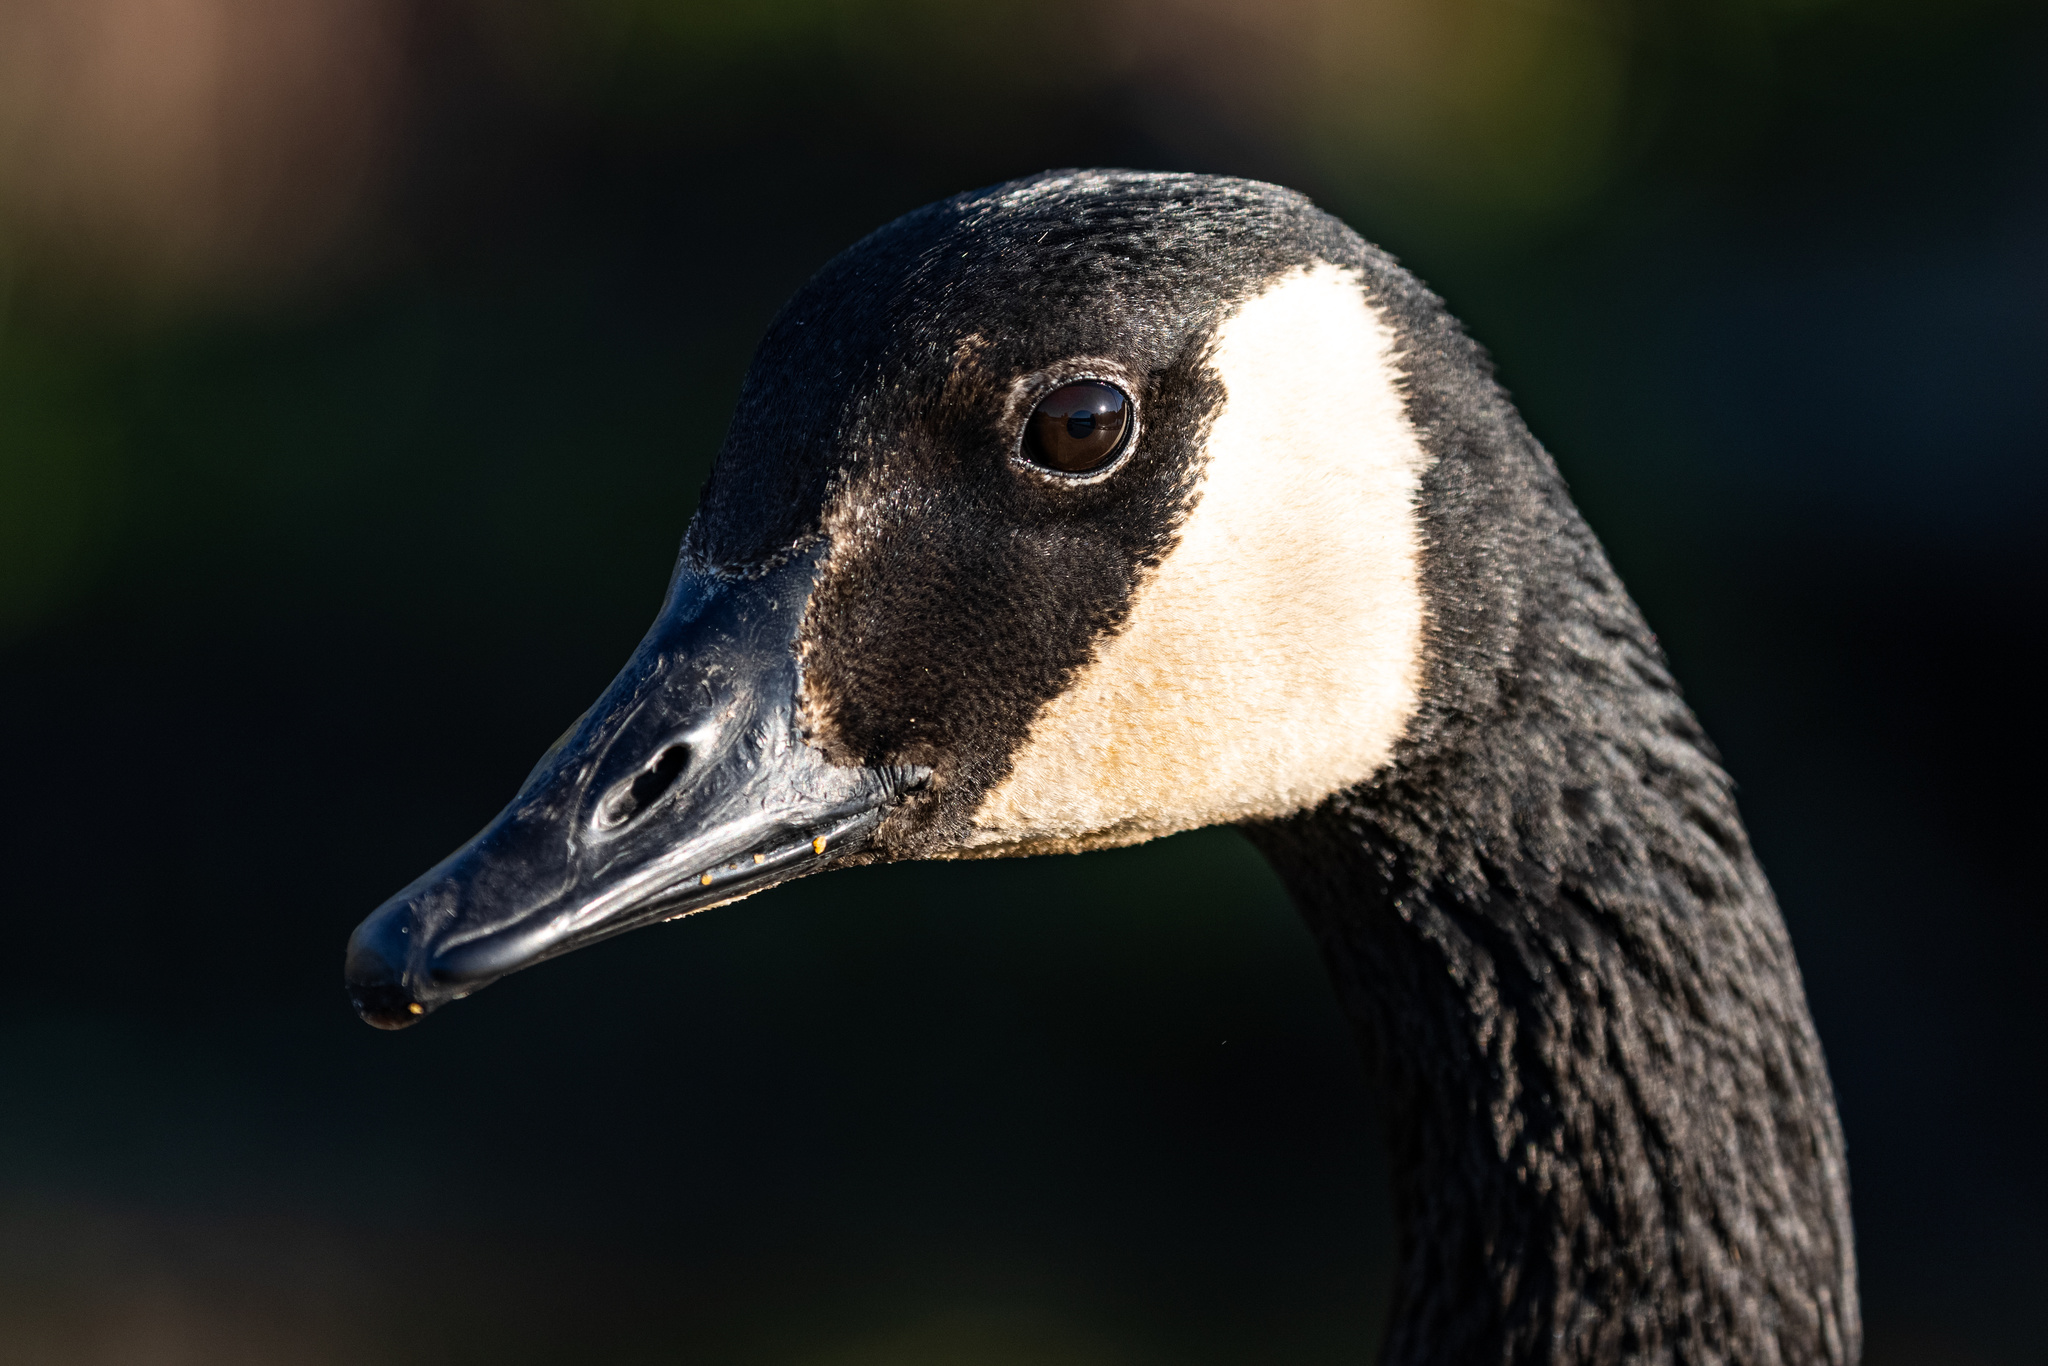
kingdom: Animalia
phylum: Chordata
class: Aves
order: Anseriformes
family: Anatidae
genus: Branta
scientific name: Branta canadensis
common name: Canada goose
